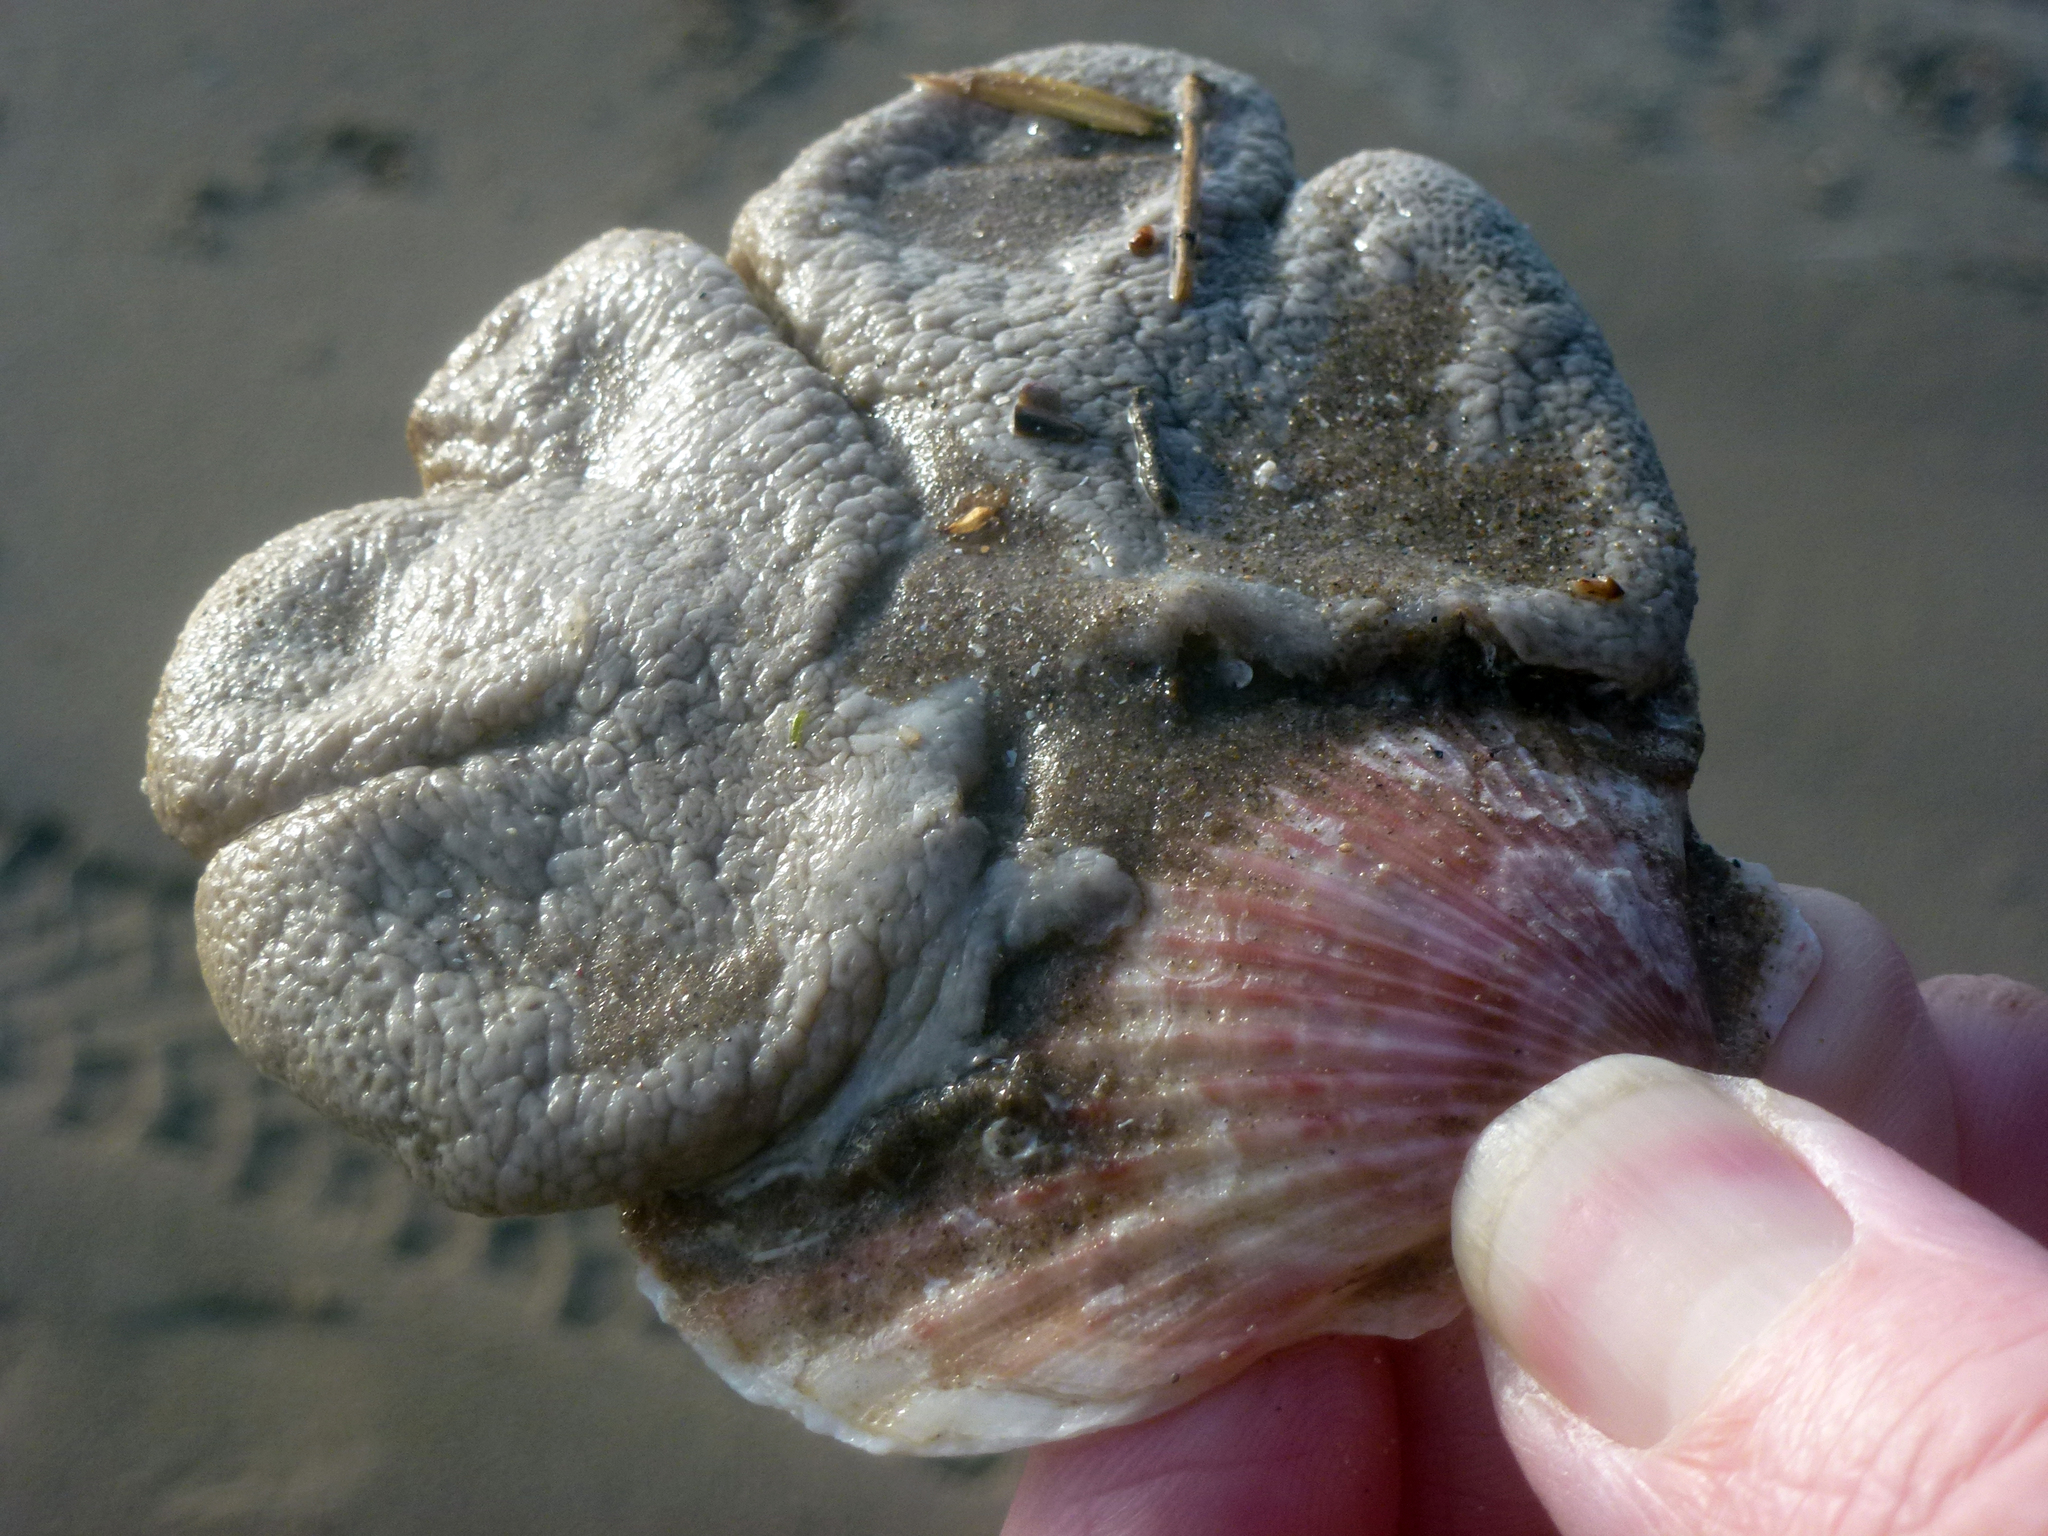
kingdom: Animalia
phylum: Cnidaria
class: Anthozoa
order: Malacalcyonacea
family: Alcyoniidae
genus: Alcyonium
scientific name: Alcyonium digitatum
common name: Dead man's fingers
